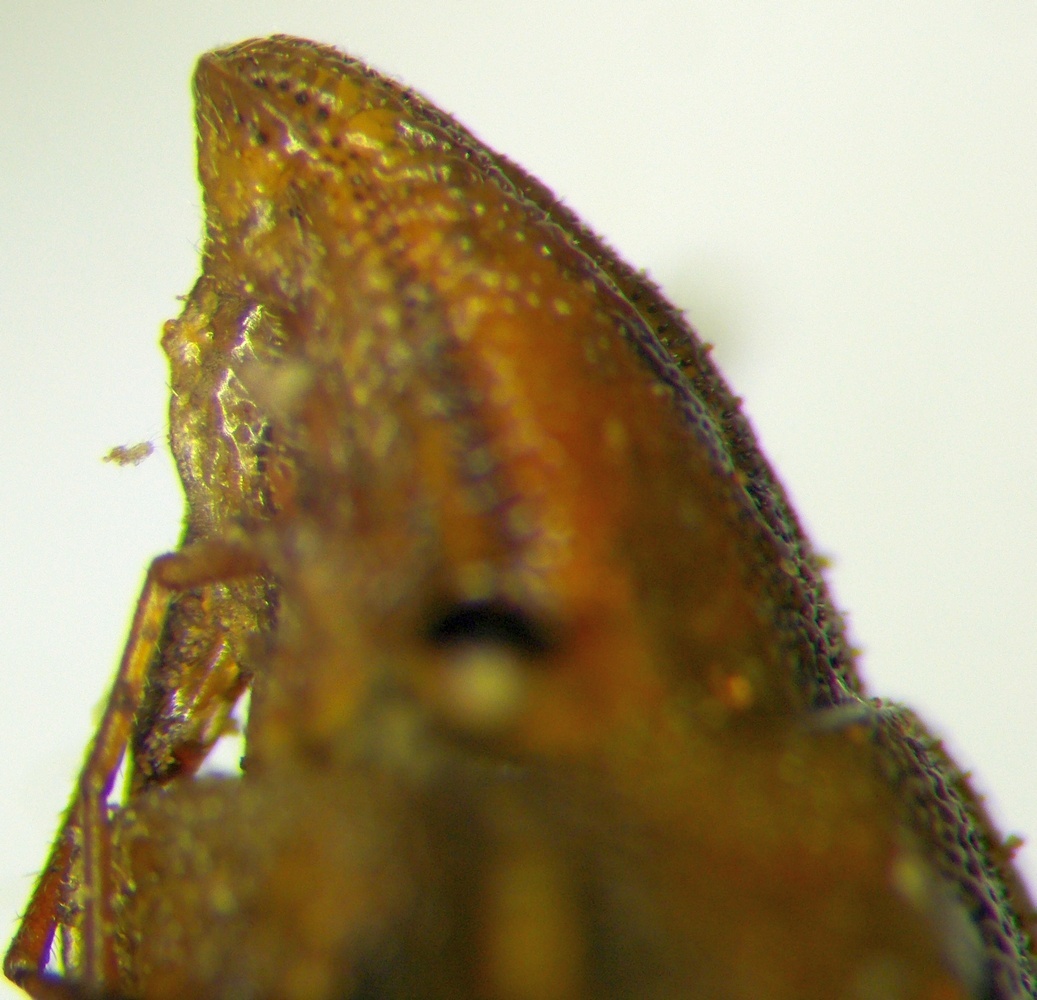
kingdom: Animalia
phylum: Arthropoda
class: Insecta
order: Hemiptera
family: Pentatomidae
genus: Aelia
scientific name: Aelia
